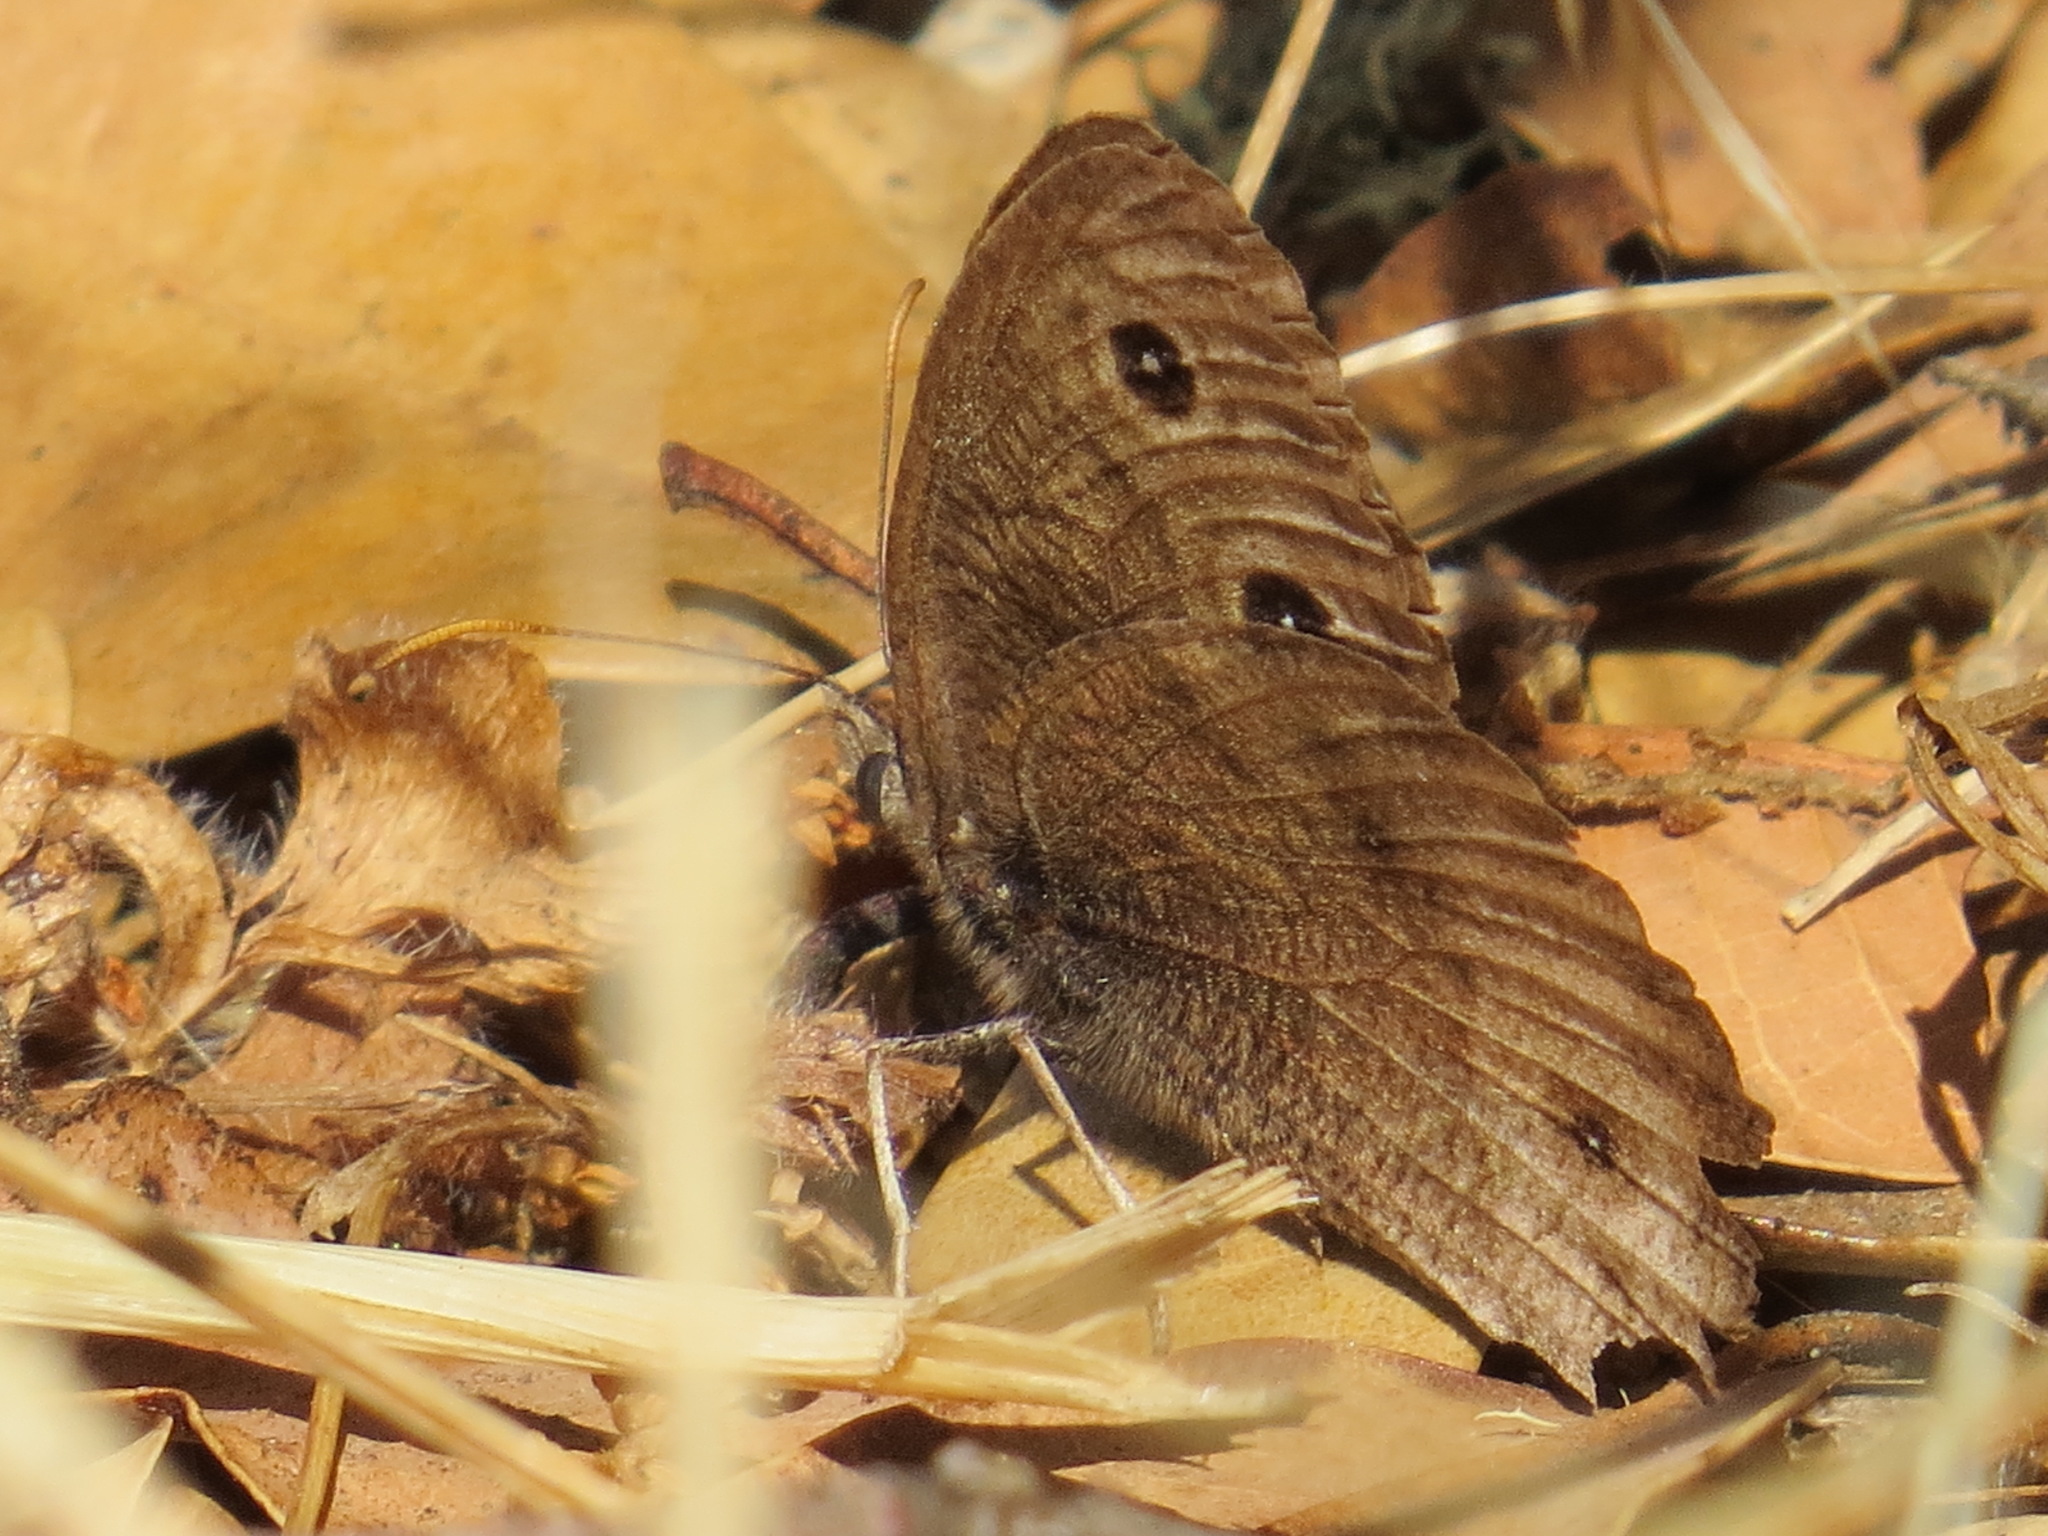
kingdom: Animalia
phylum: Arthropoda
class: Insecta
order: Lepidoptera
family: Nymphalidae
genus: Cercyonis
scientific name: Cercyonis pegala
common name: Common wood-nymph
